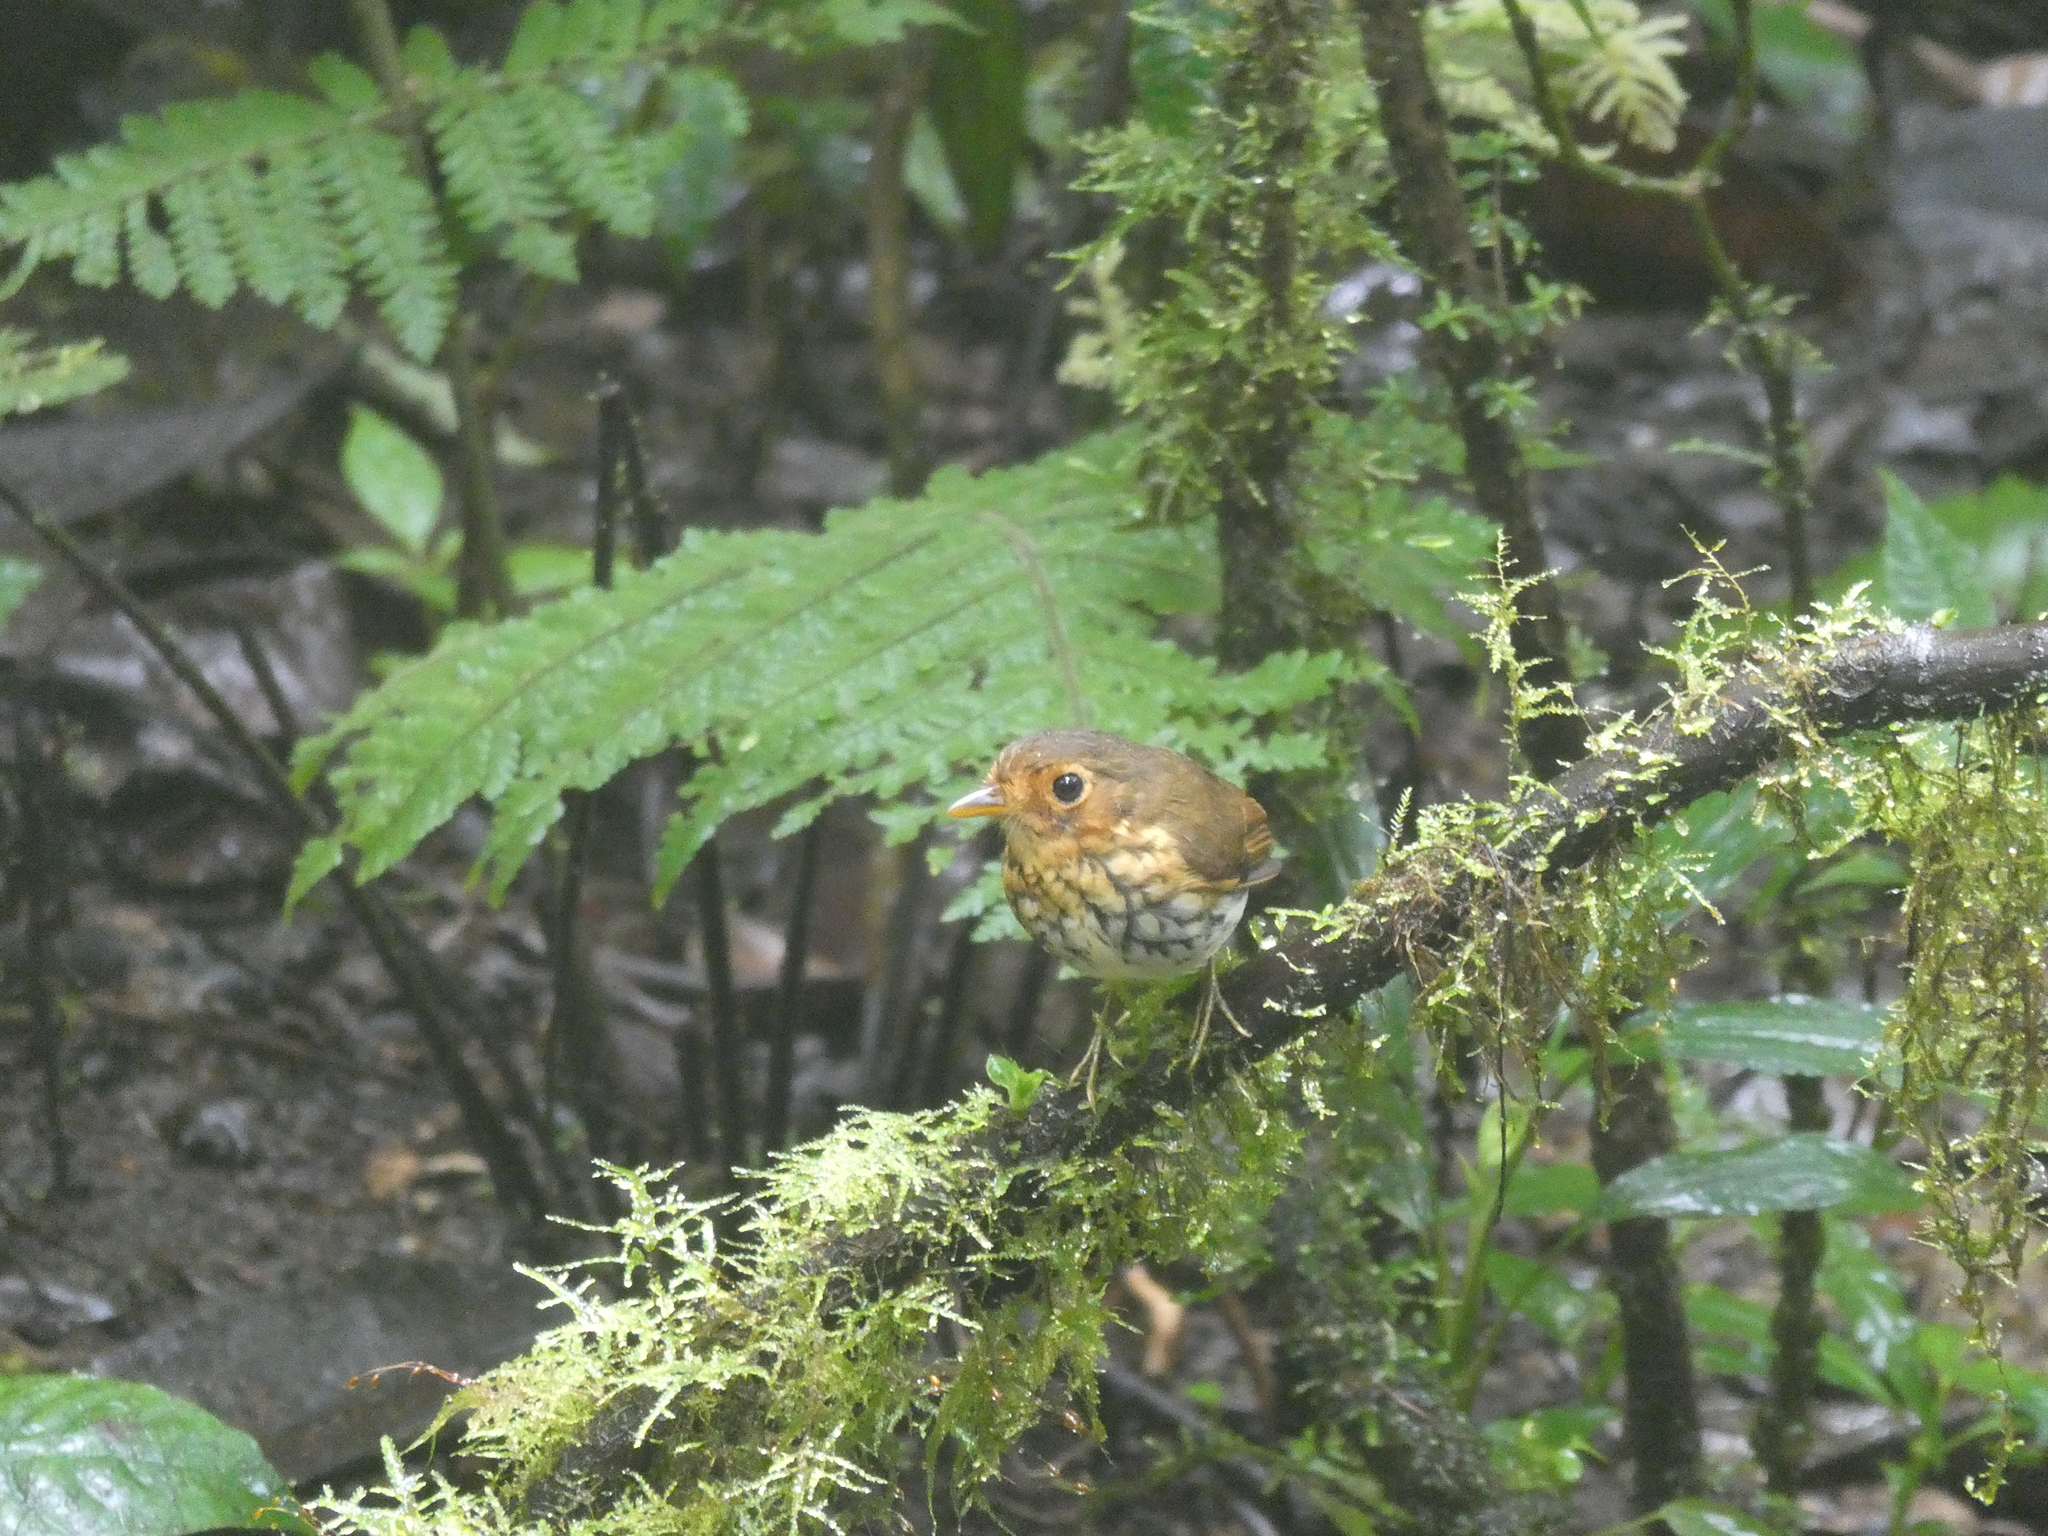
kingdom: Animalia
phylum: Chordata
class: Aves
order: Passeriformes
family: Grallariidae
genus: Grallaricula
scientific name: Grallaricula flavirostris
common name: Ochre-breasted antpitta
